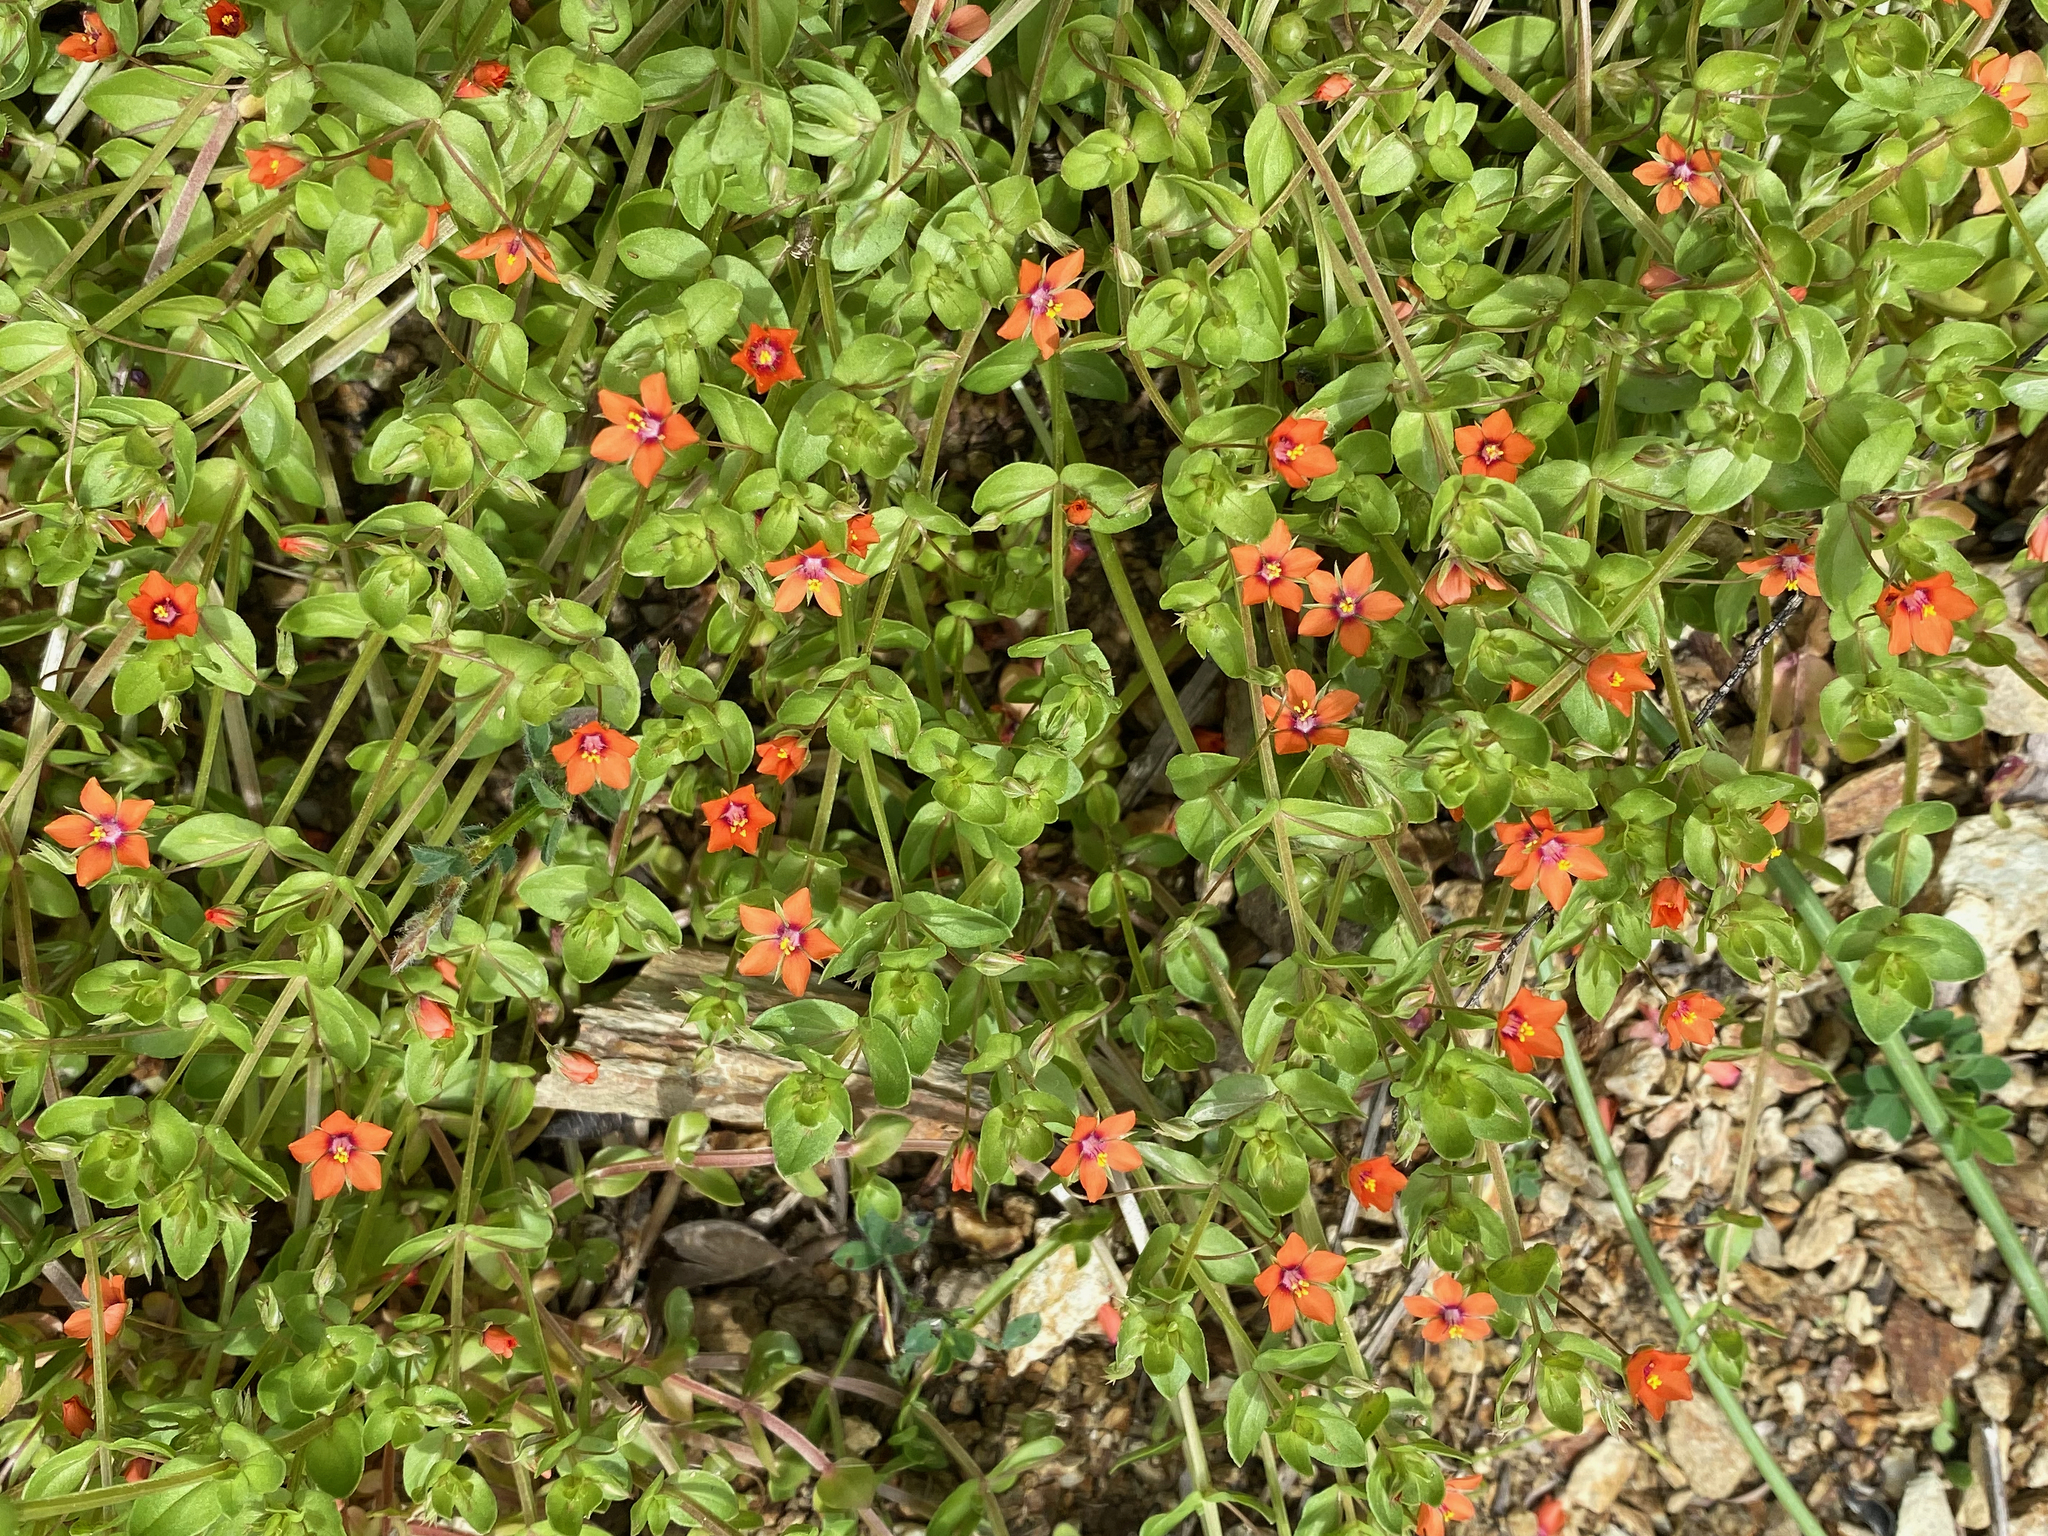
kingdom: Plantae
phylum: Tracheophyta
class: Magnoliopsida
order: Ericales
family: Primulaceae
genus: Lysimachia
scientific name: Lysimachia arvensis
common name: Scarlet pimpernel
